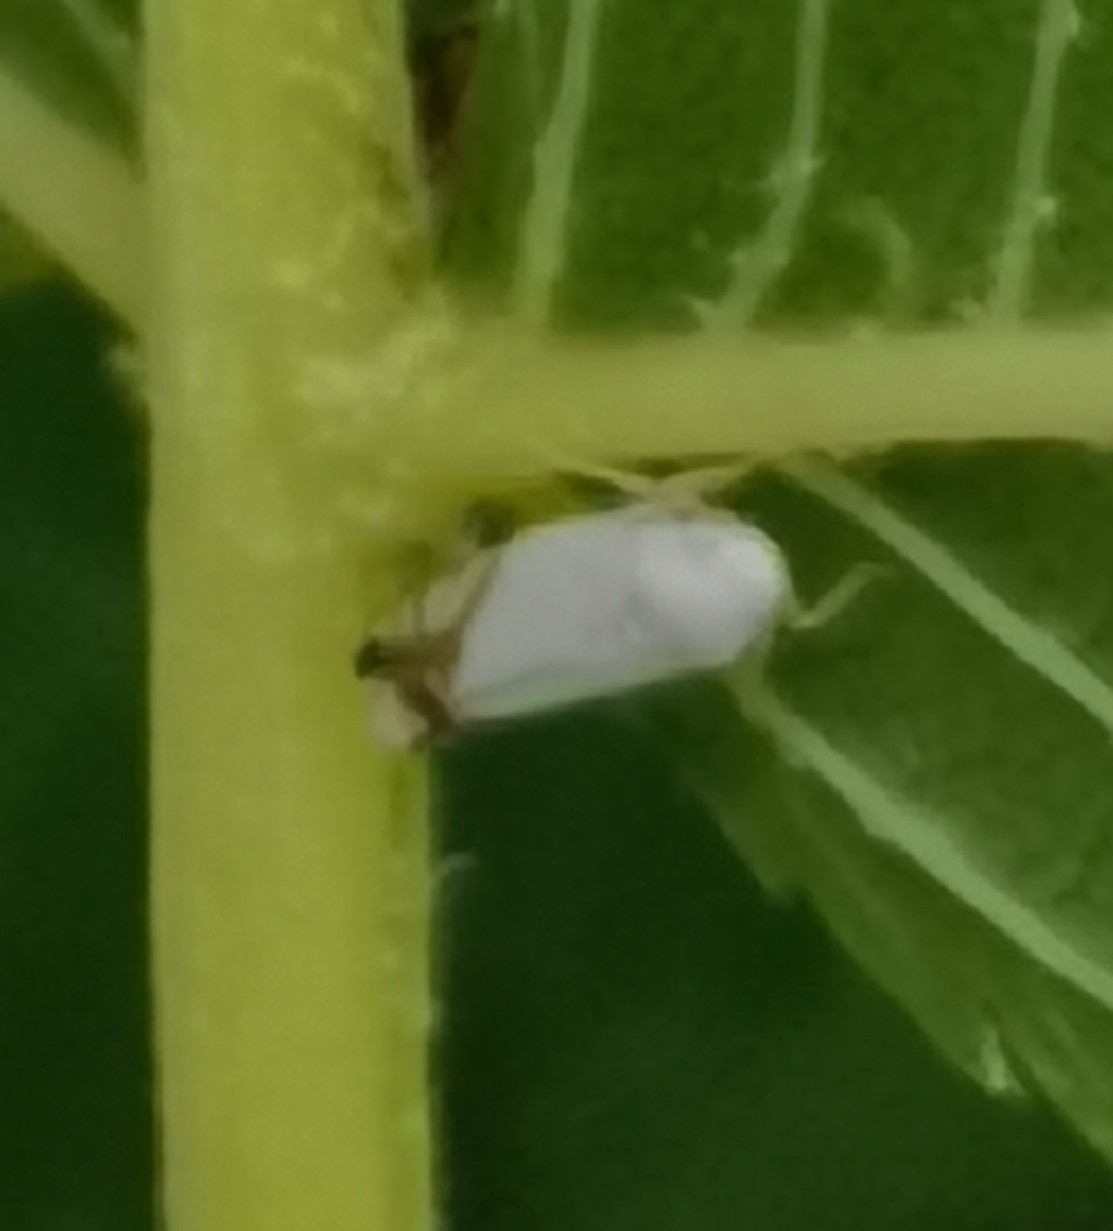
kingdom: Animalia
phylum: Arthropoda
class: Insecta
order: Hemiptera
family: Cicadellidae
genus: Aguriahana
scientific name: Aguriahana stellulata
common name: Leafhopper
